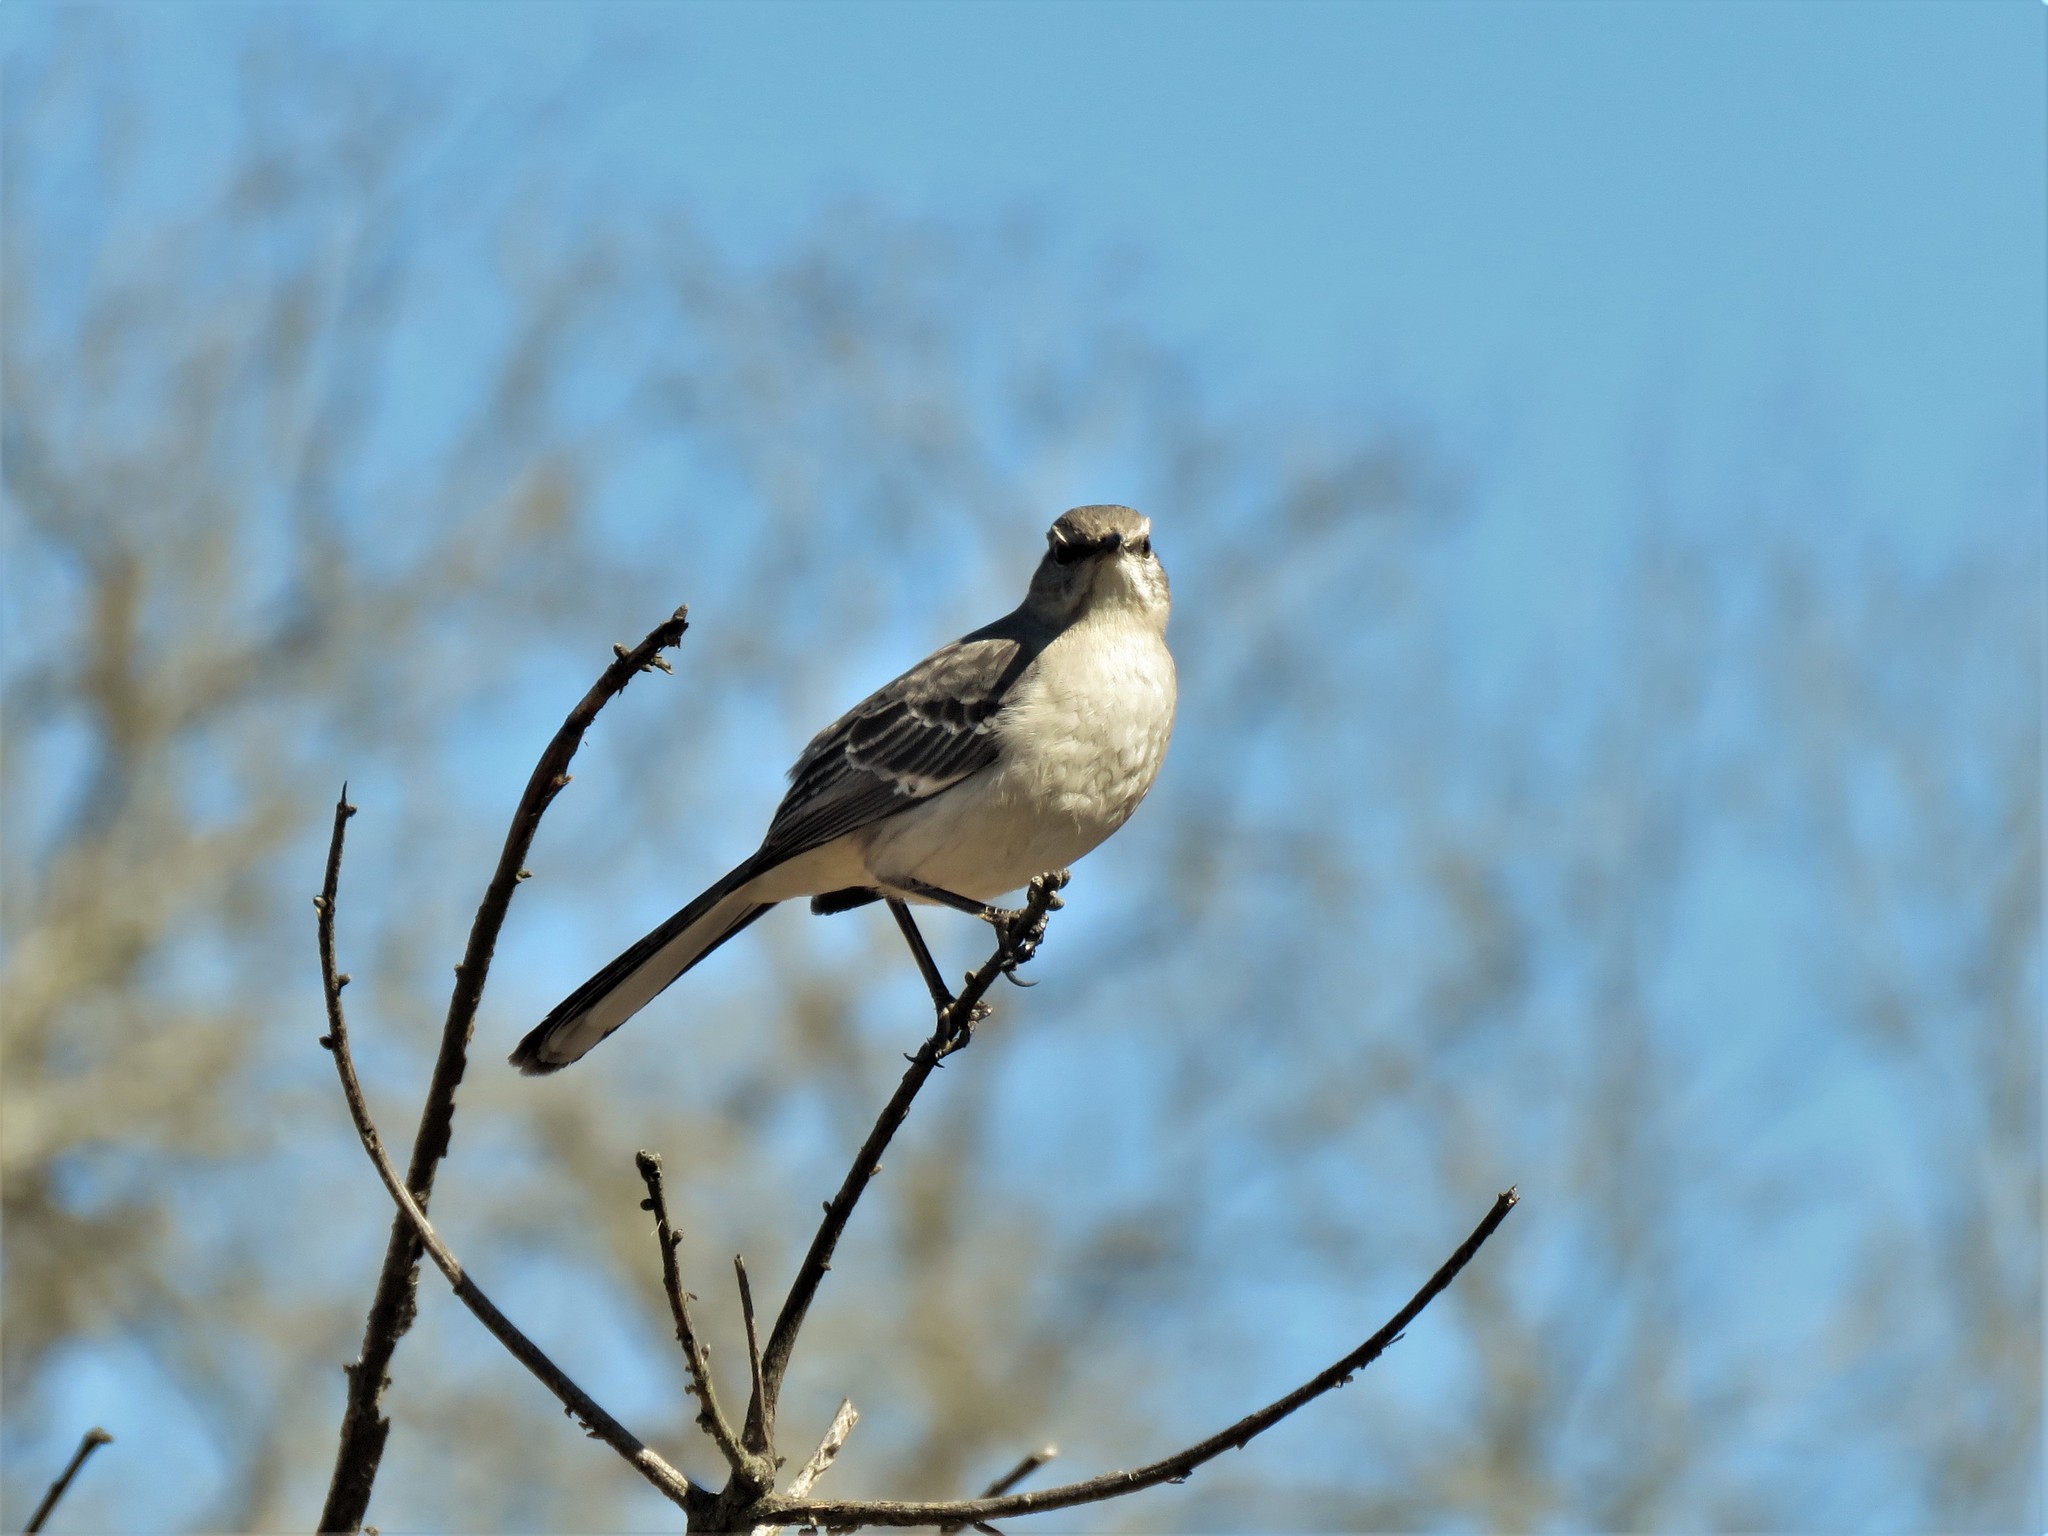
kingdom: Animalia
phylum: Chordata
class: Aves
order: Passeriformes
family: Mimidae
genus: Mimus
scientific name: Mimus polyglottos
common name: Northern mockingbird
